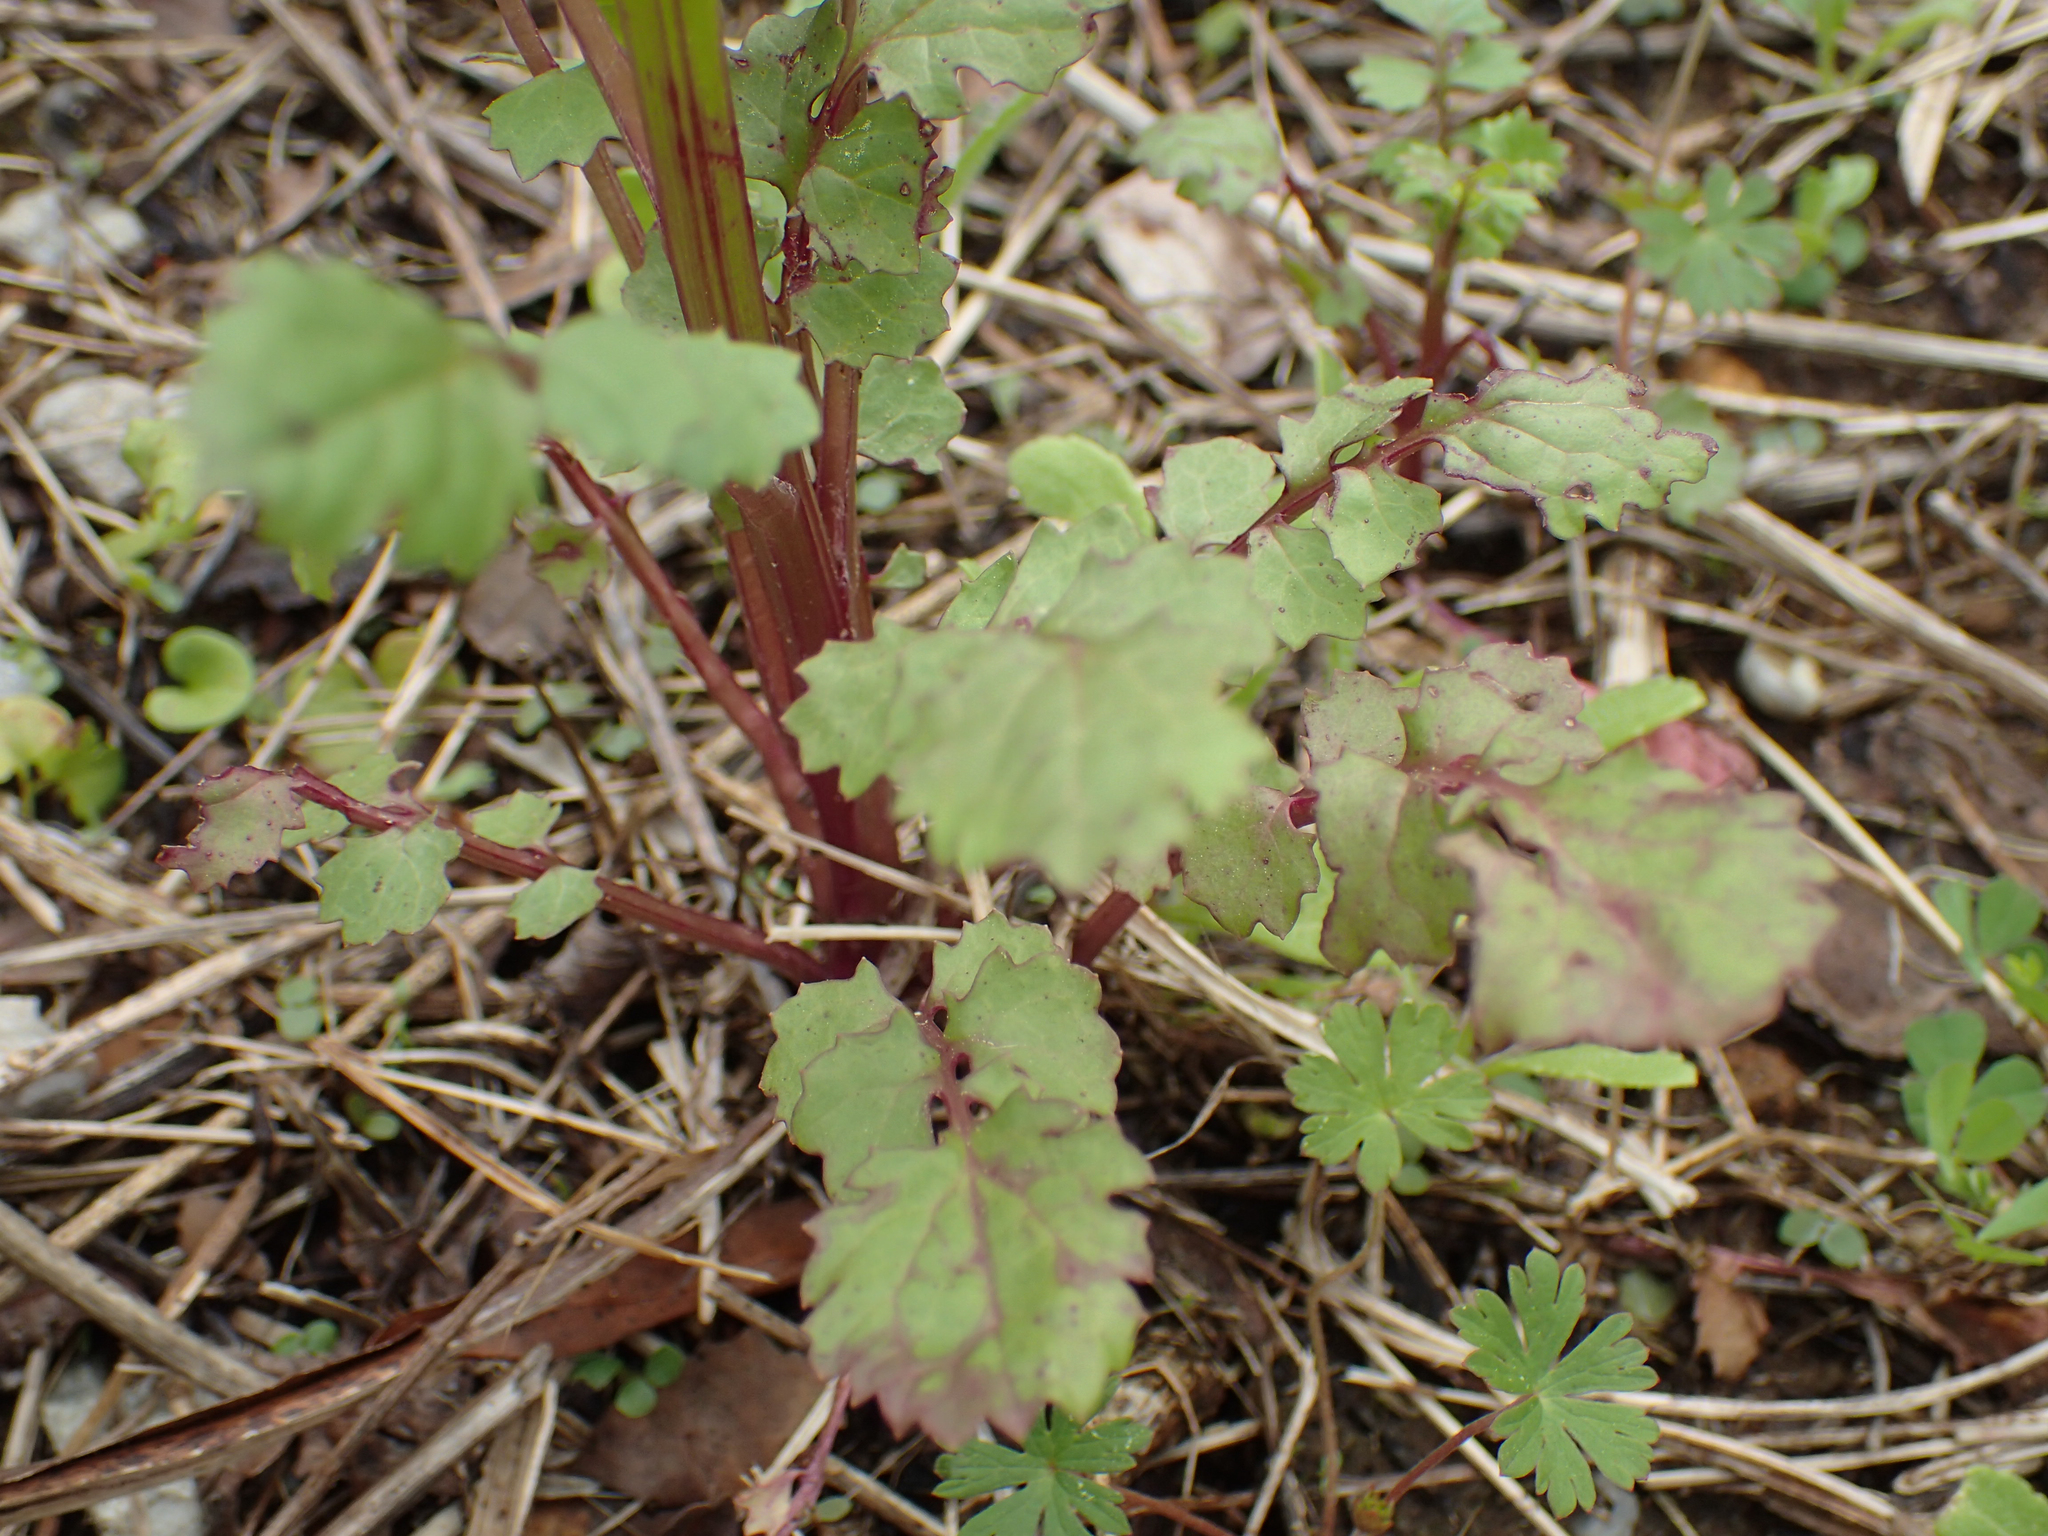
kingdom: Plantae
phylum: Tracheophyta
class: Magnoliopsida
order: Asterales
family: Asteraceae
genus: Packera
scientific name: Packera glabella
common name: Butterweed
